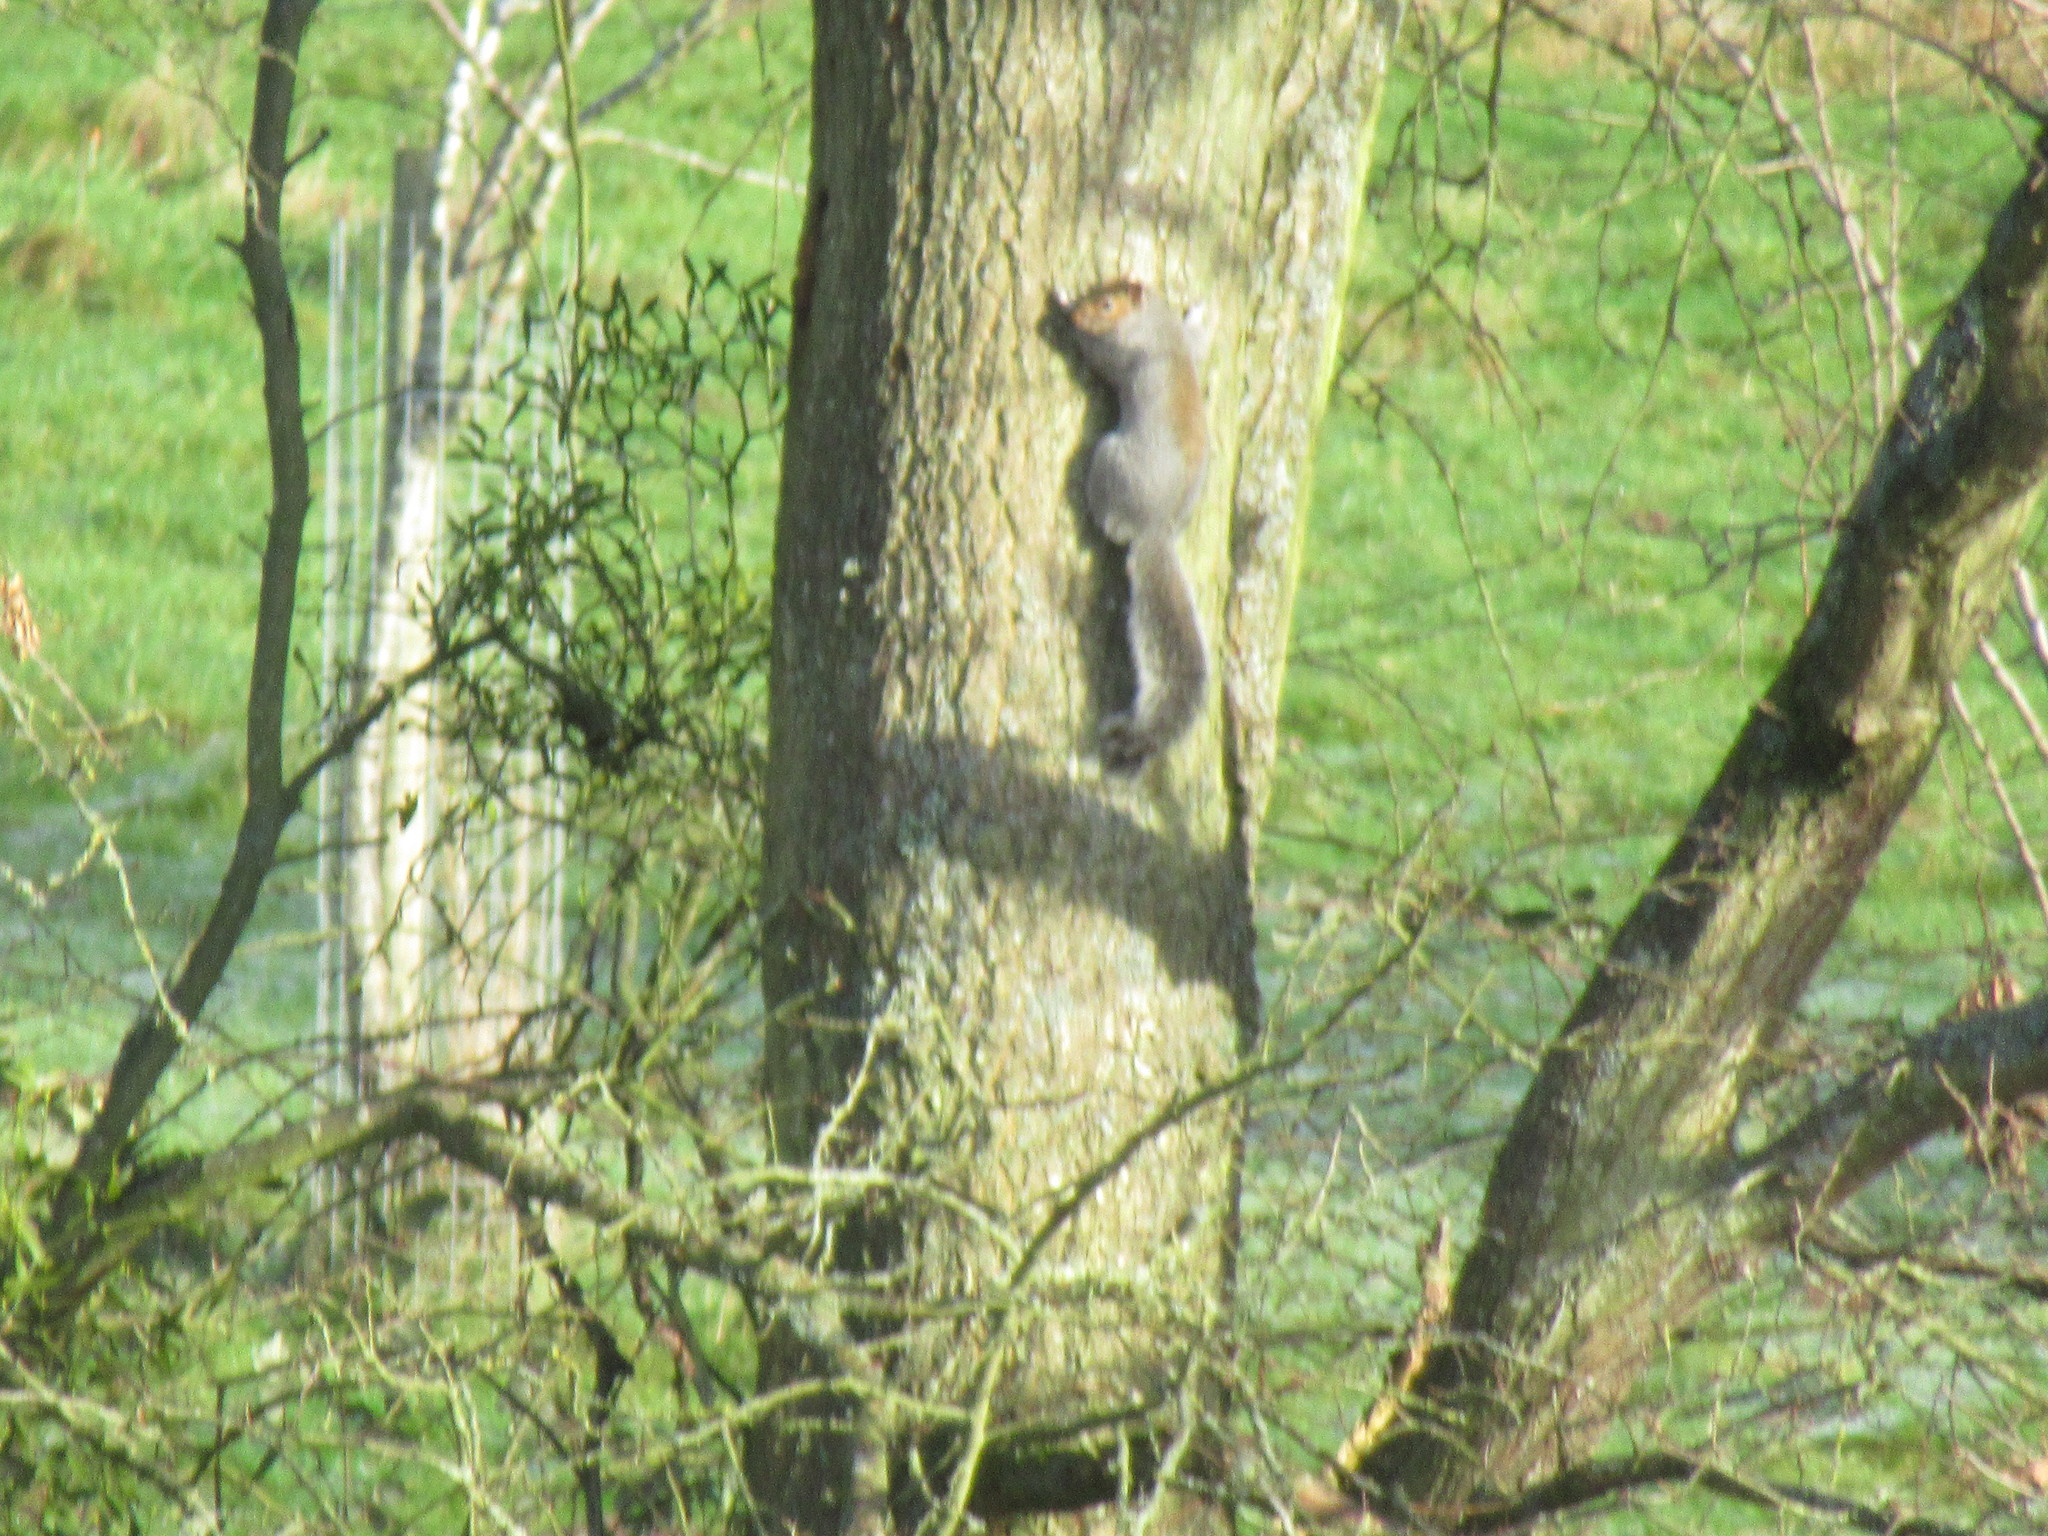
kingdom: Animalia
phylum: Chordata
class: Mammalia
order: Rodentia
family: Sciuridae
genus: Sciurus
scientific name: Sciurus carolinensis
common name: Eastern gray squirrel
